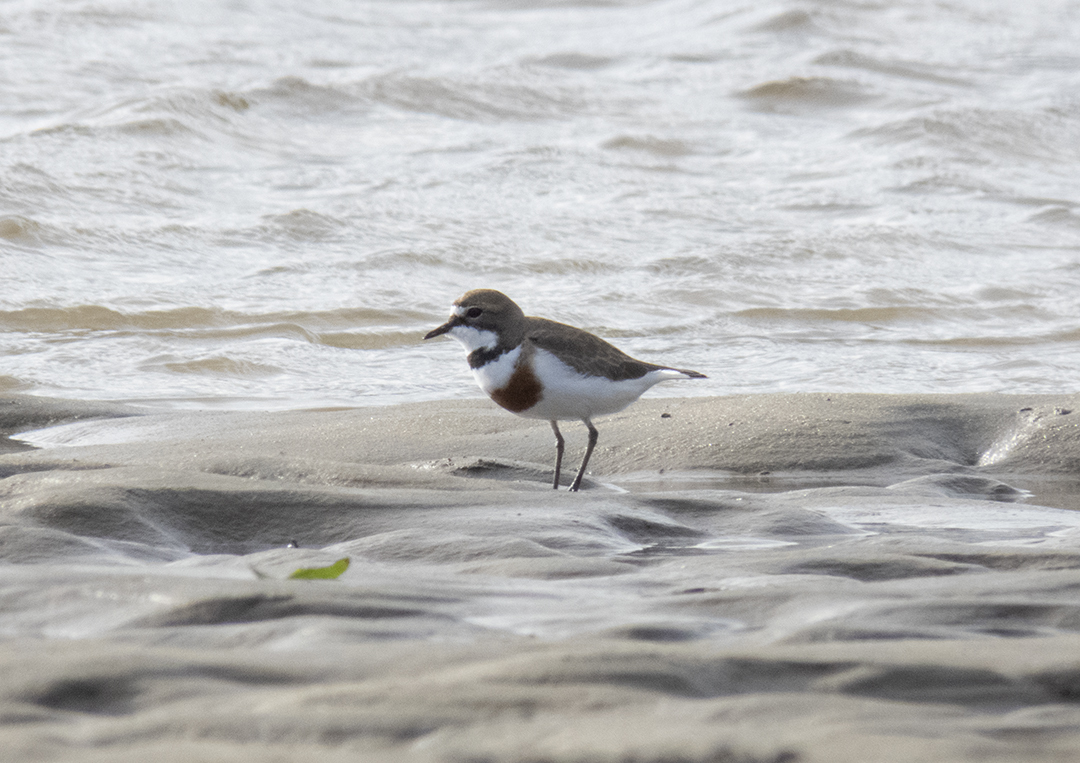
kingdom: Animalia
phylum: Chordata
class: Aves
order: Charadriiformes
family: Charadriidae
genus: Anarhynchus
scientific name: Anarhynchus
